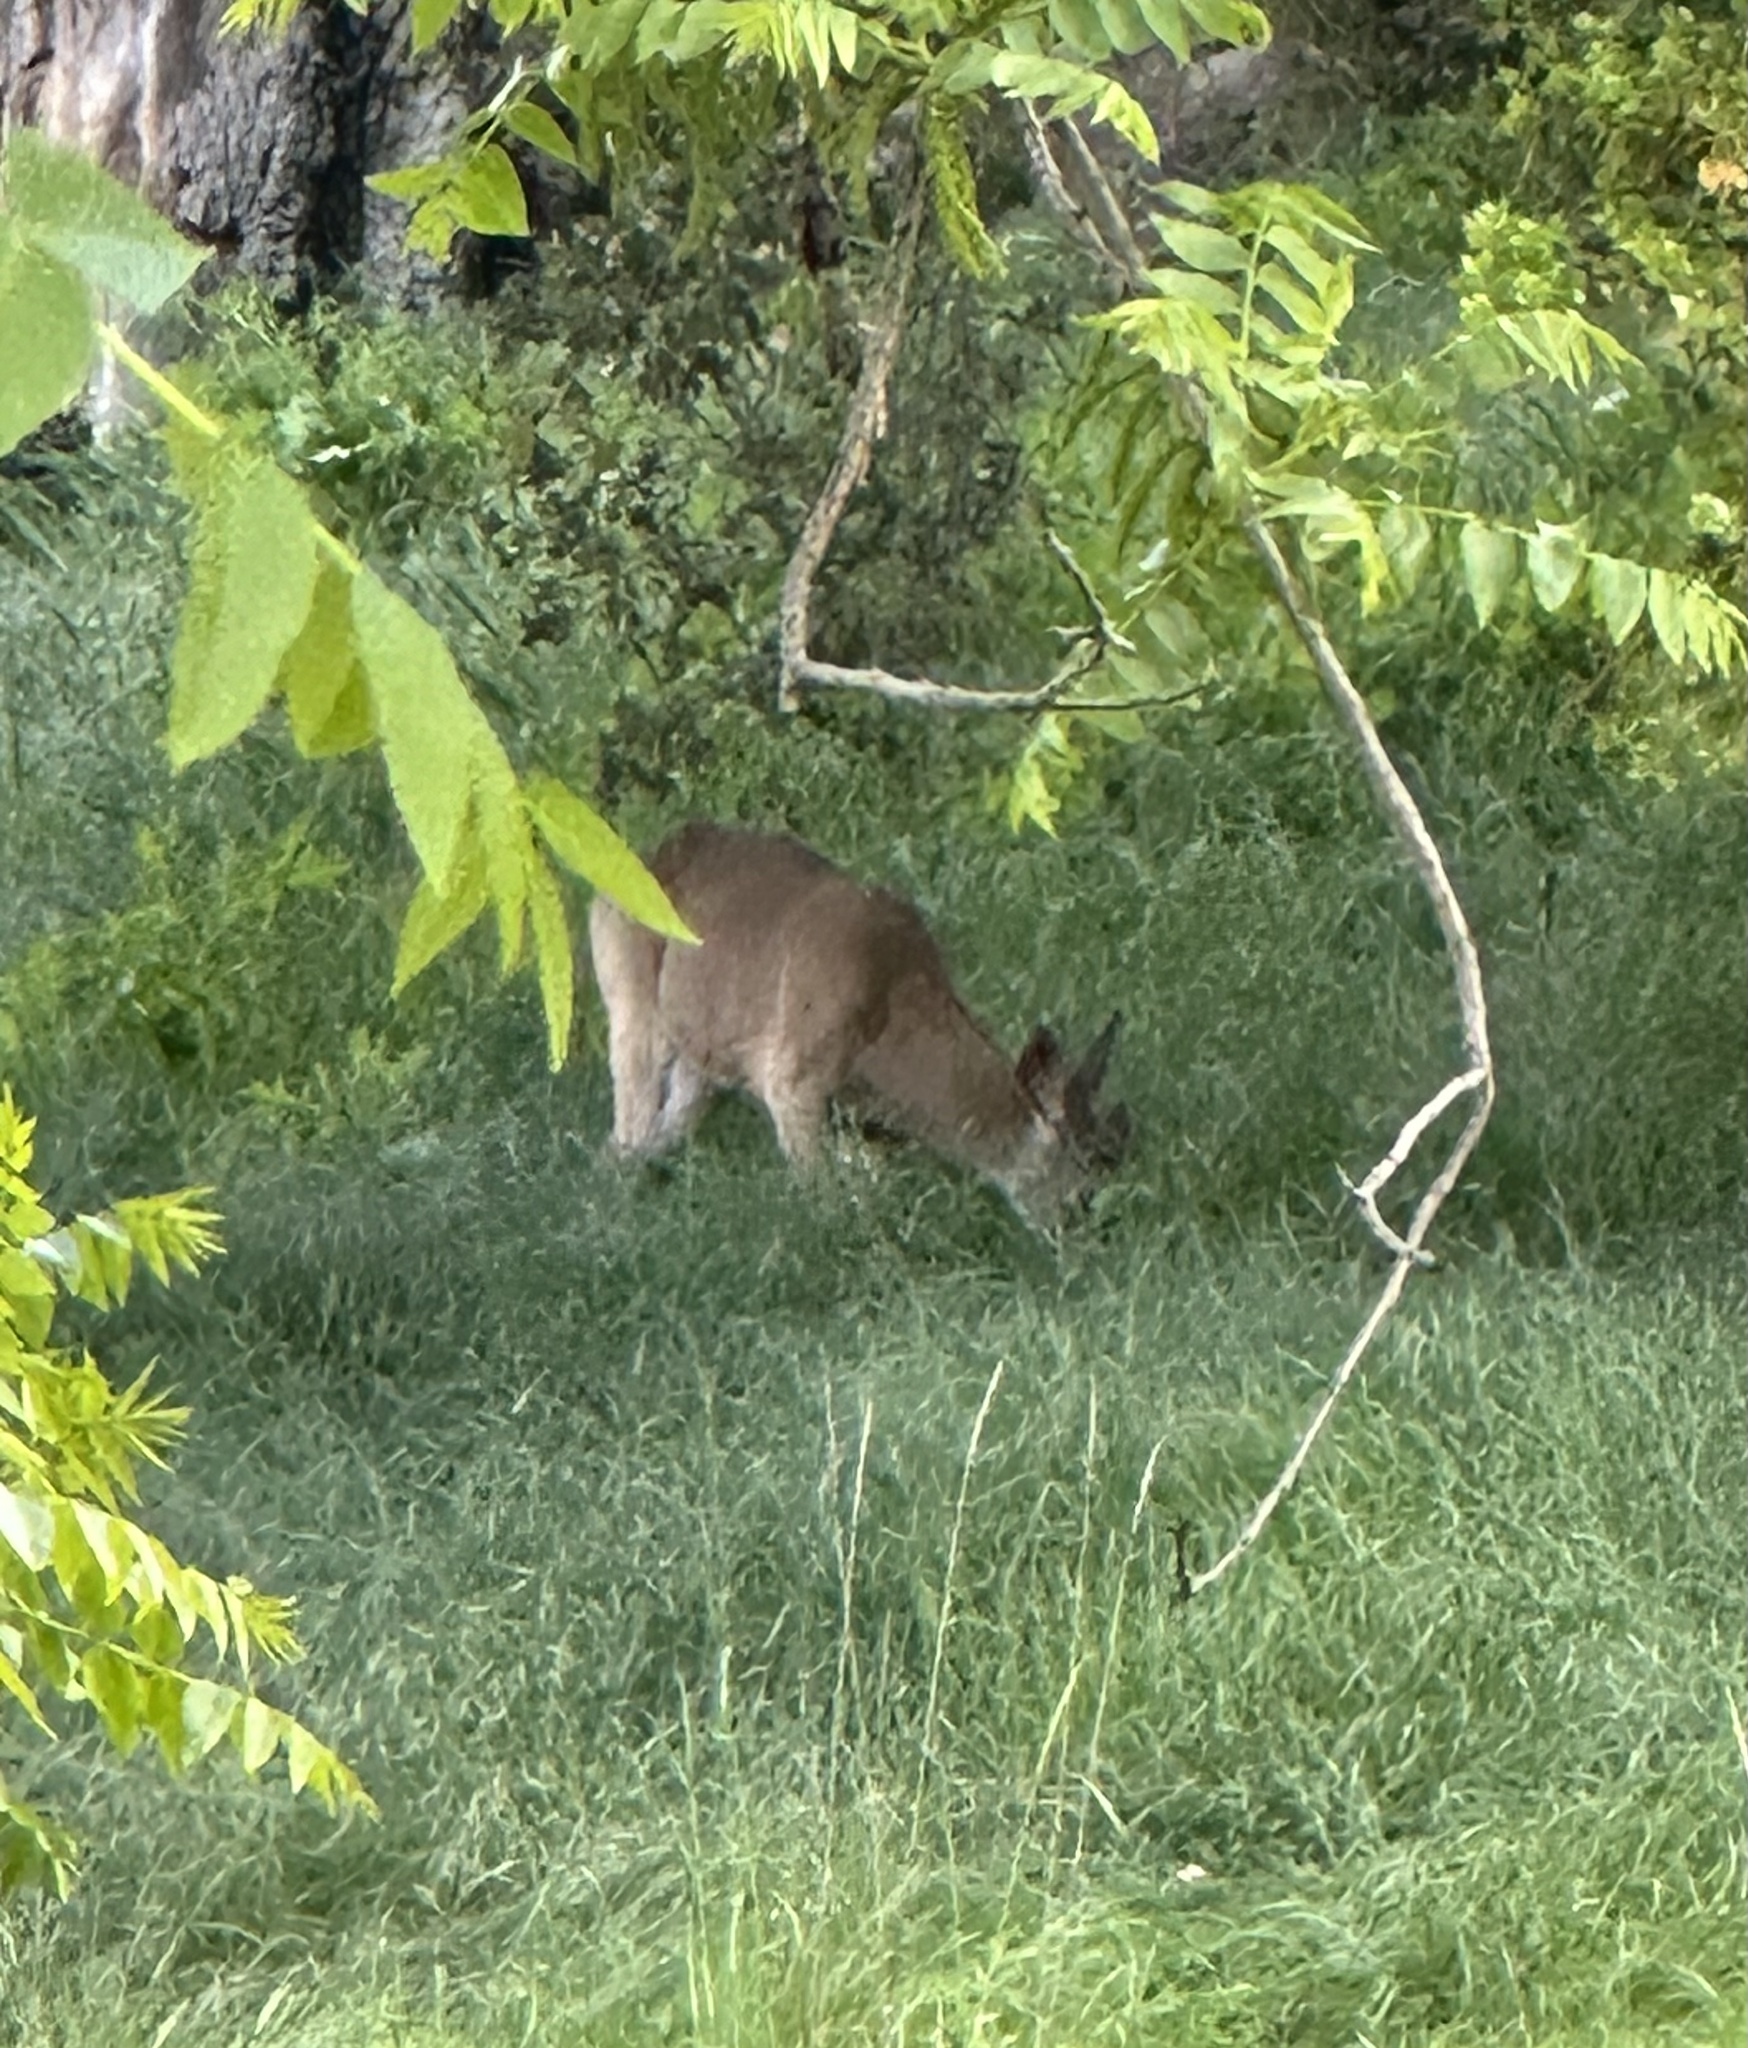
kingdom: Animalia
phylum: Chordata
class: Mammalia
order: Artiodactyla
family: Cervidae
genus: Odocoileus
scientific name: Odocoileus hemionus
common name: Mule deer
